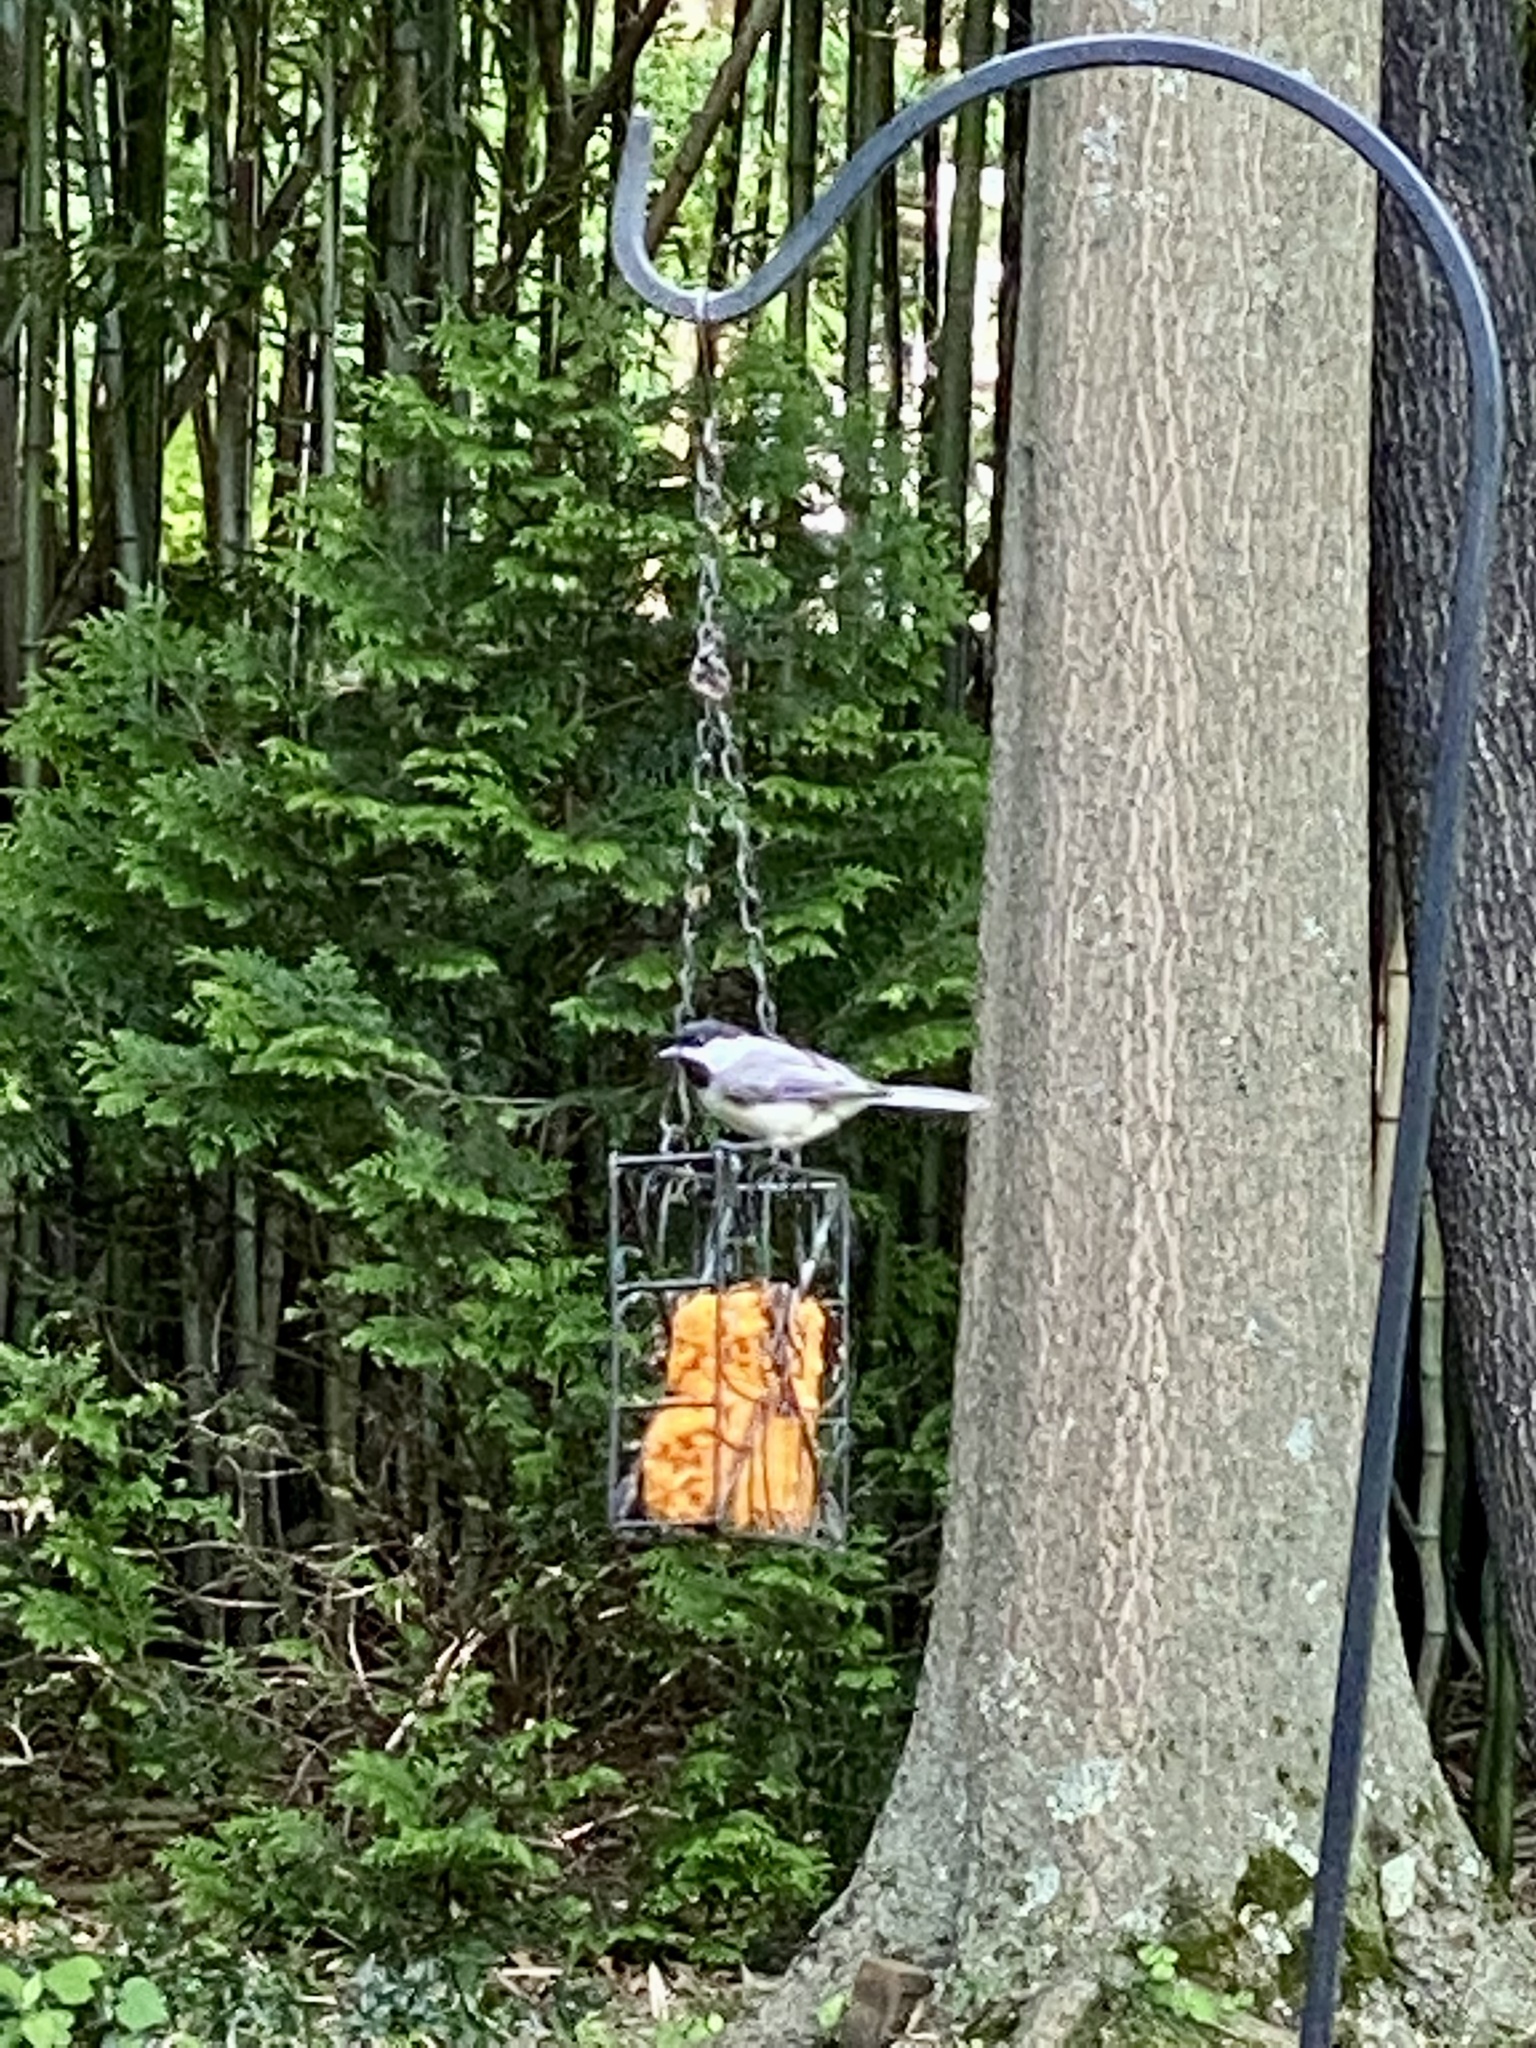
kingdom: Animalia
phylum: Chordata
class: Aves
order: Passeriformes
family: Paridae
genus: Poecile
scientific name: Poecile atricapillus
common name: Black-capped chickadee
